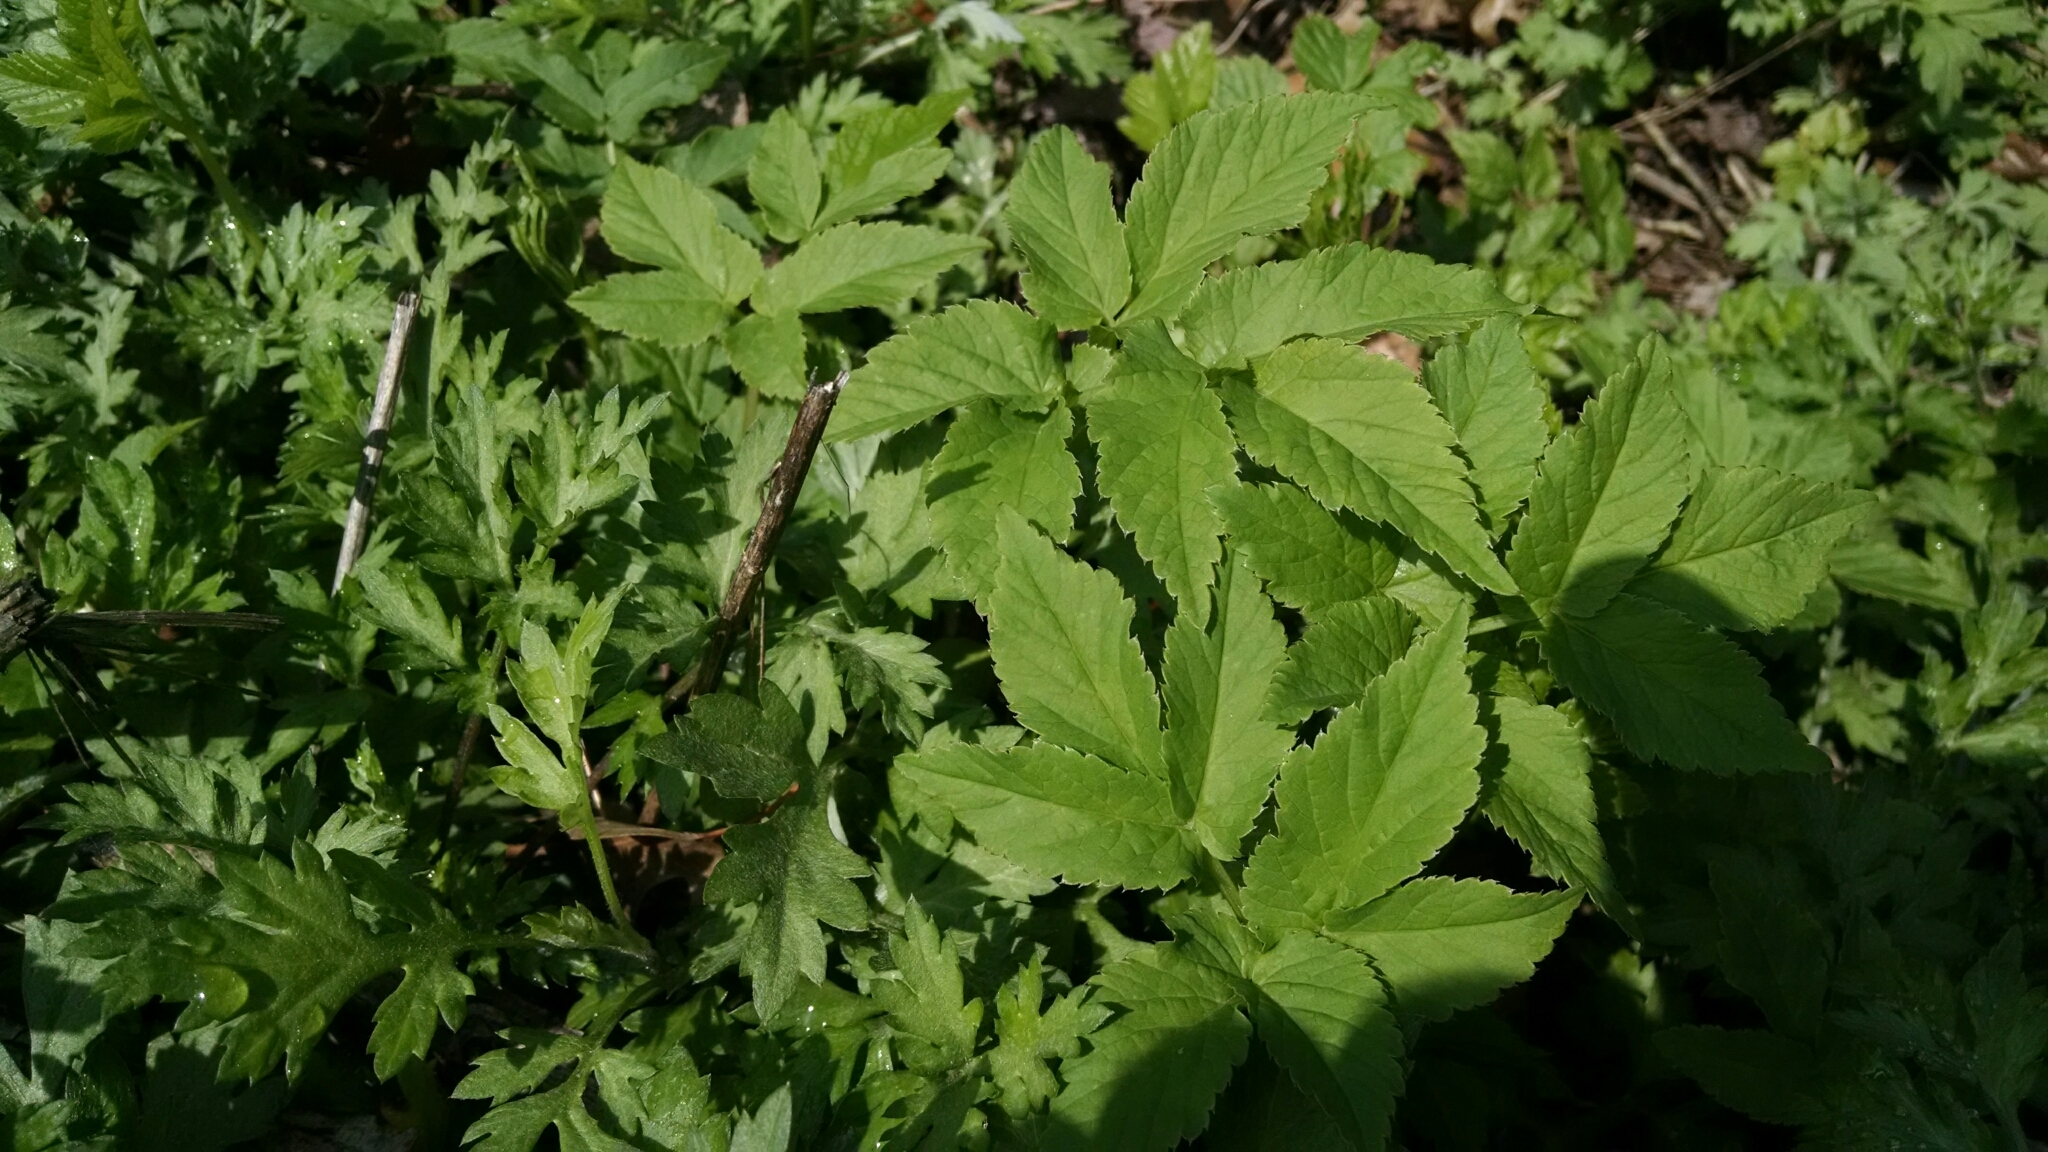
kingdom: Plantae
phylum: Tracheophyta
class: Magnoliopsida
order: Apiales
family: Apiaceae
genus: Aegopodium
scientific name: Aegopodium podagraria
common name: Ground-elder
